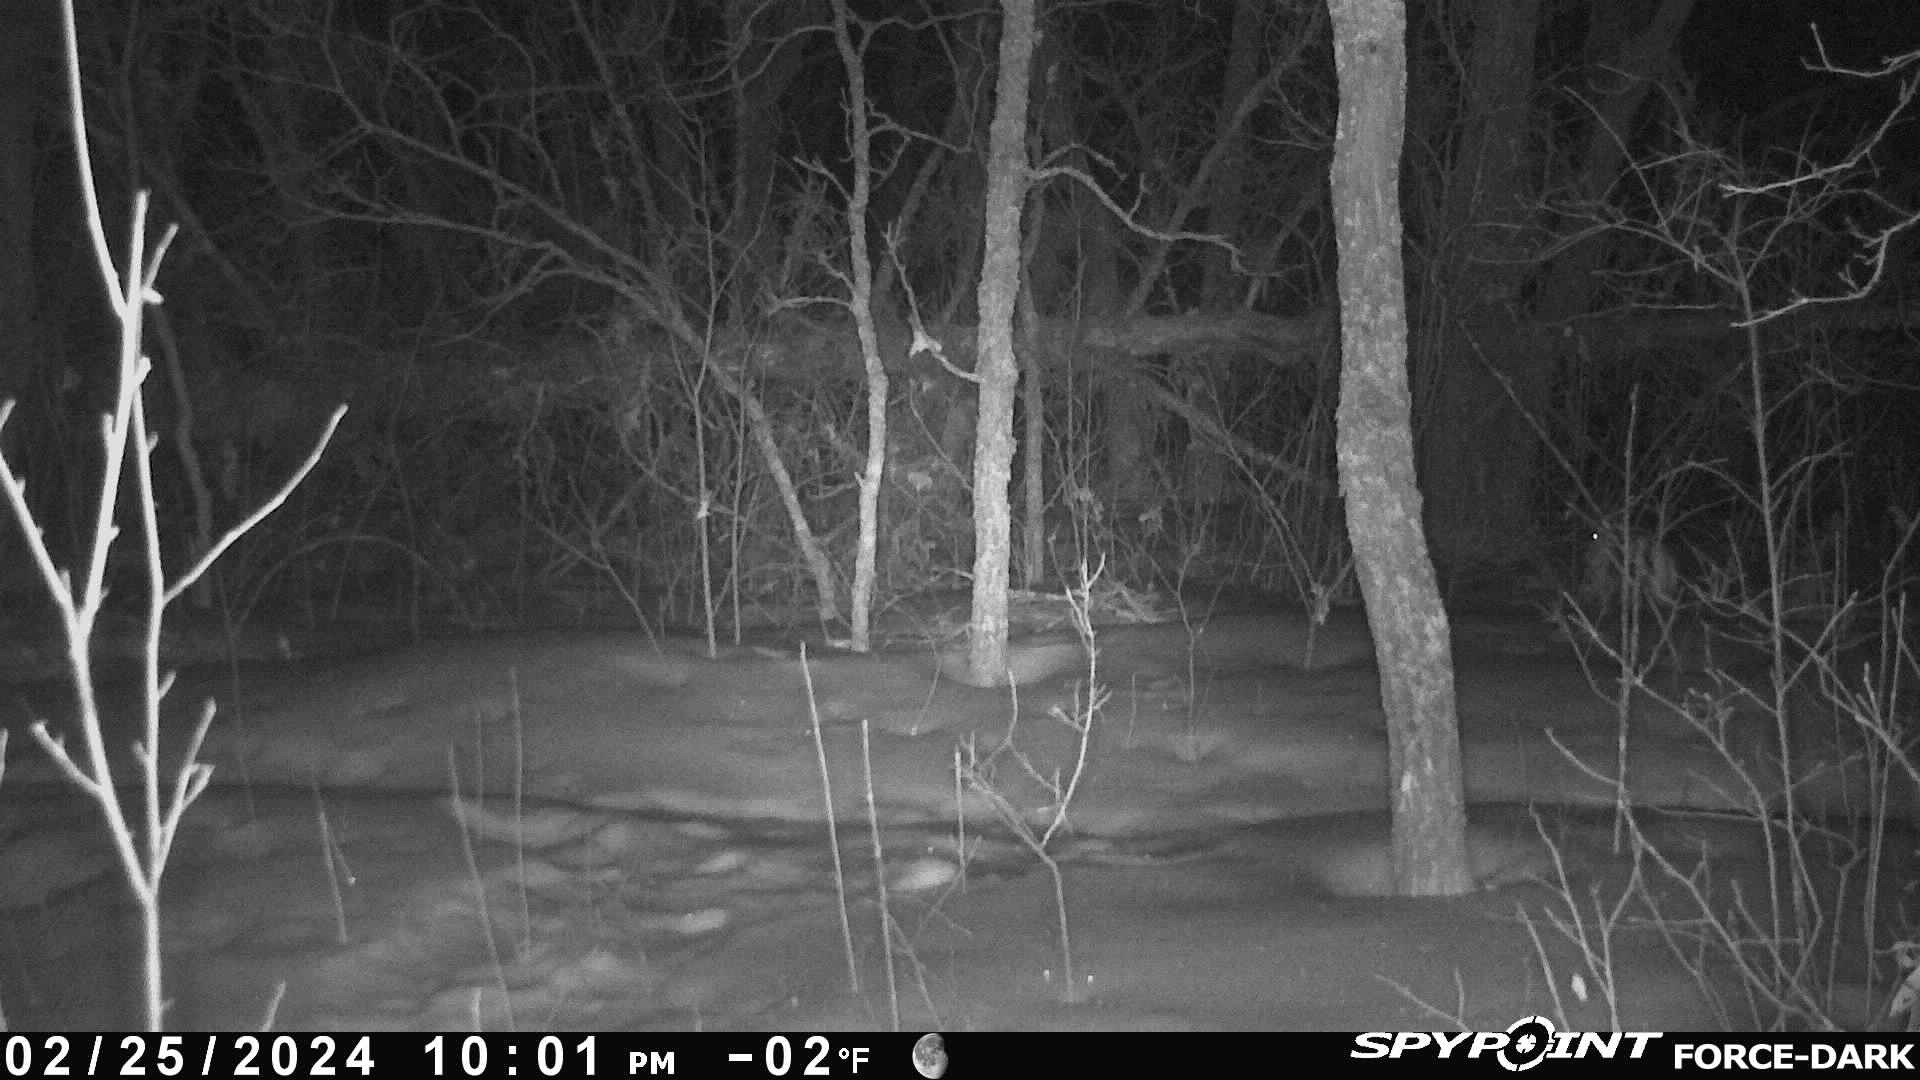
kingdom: Animalia
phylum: Chordata
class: Mammalia
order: Lagomorpha
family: Leporidae
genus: Lepus
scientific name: Lepus americanus
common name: Snowshoe hare
